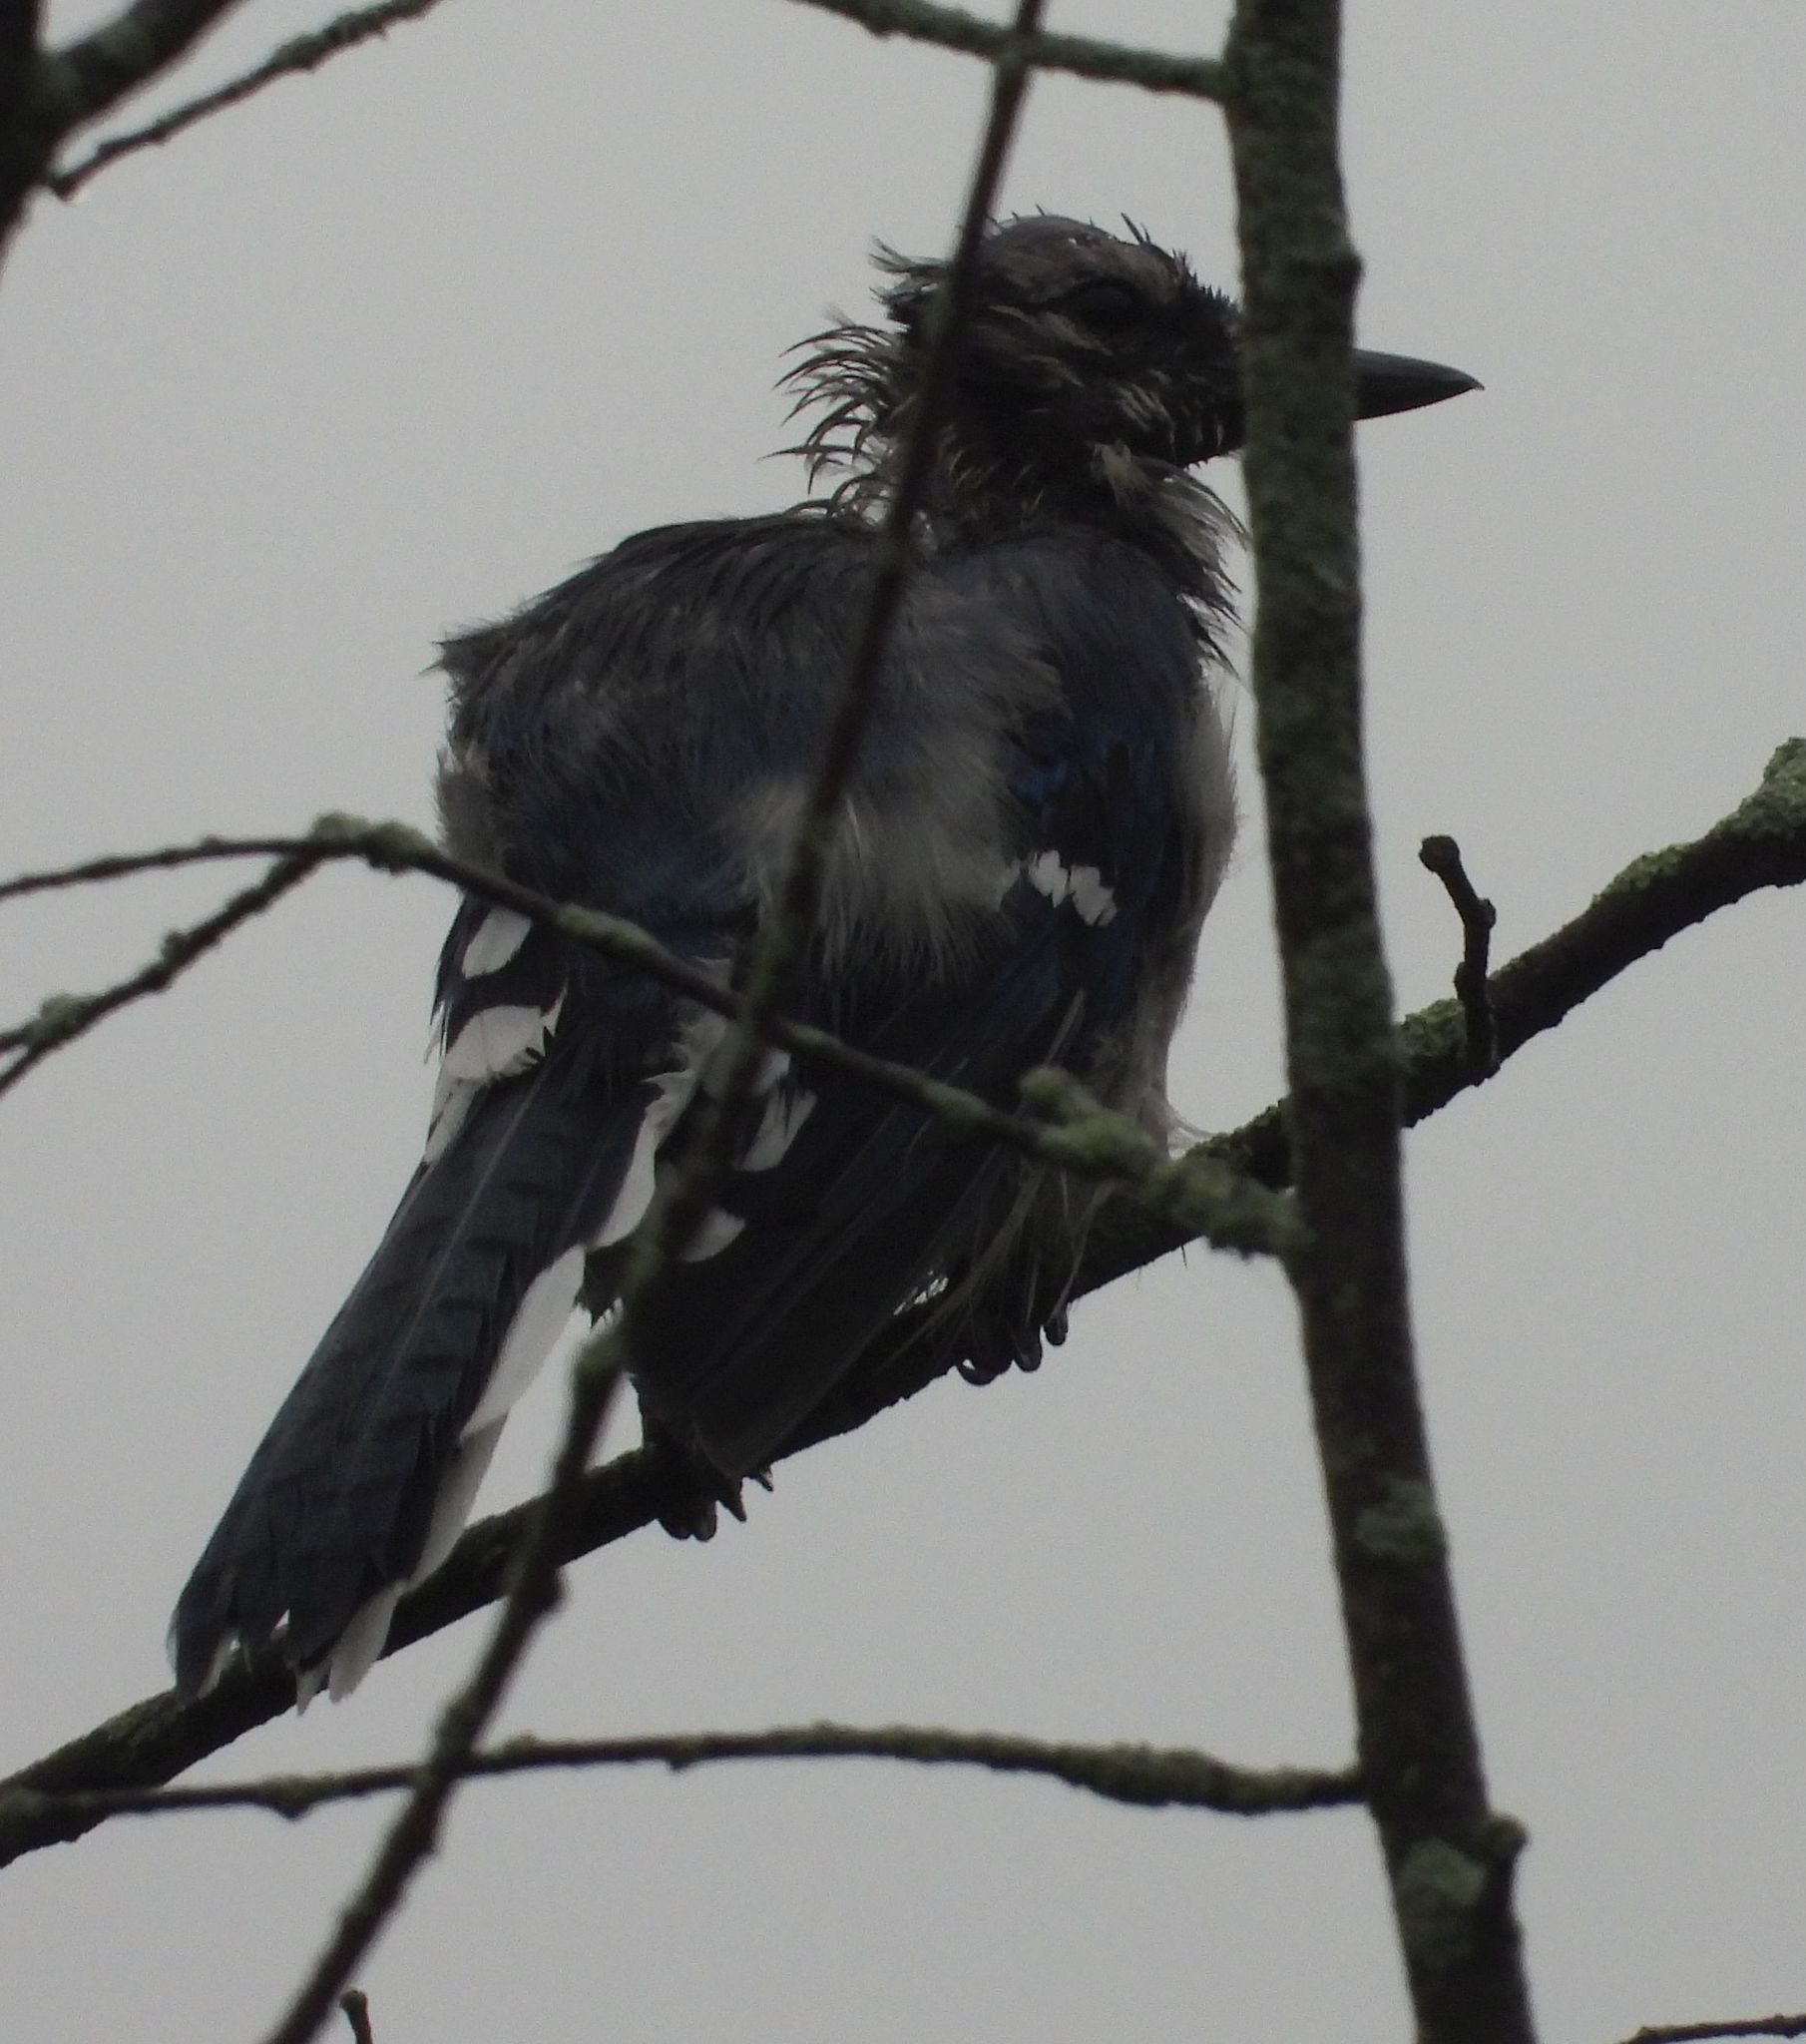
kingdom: Animalia
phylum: Chordata
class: Aves
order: Passeriformes
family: Corvidae
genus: Cyanocitta
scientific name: Cyanocitta cristata
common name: Blue jay
